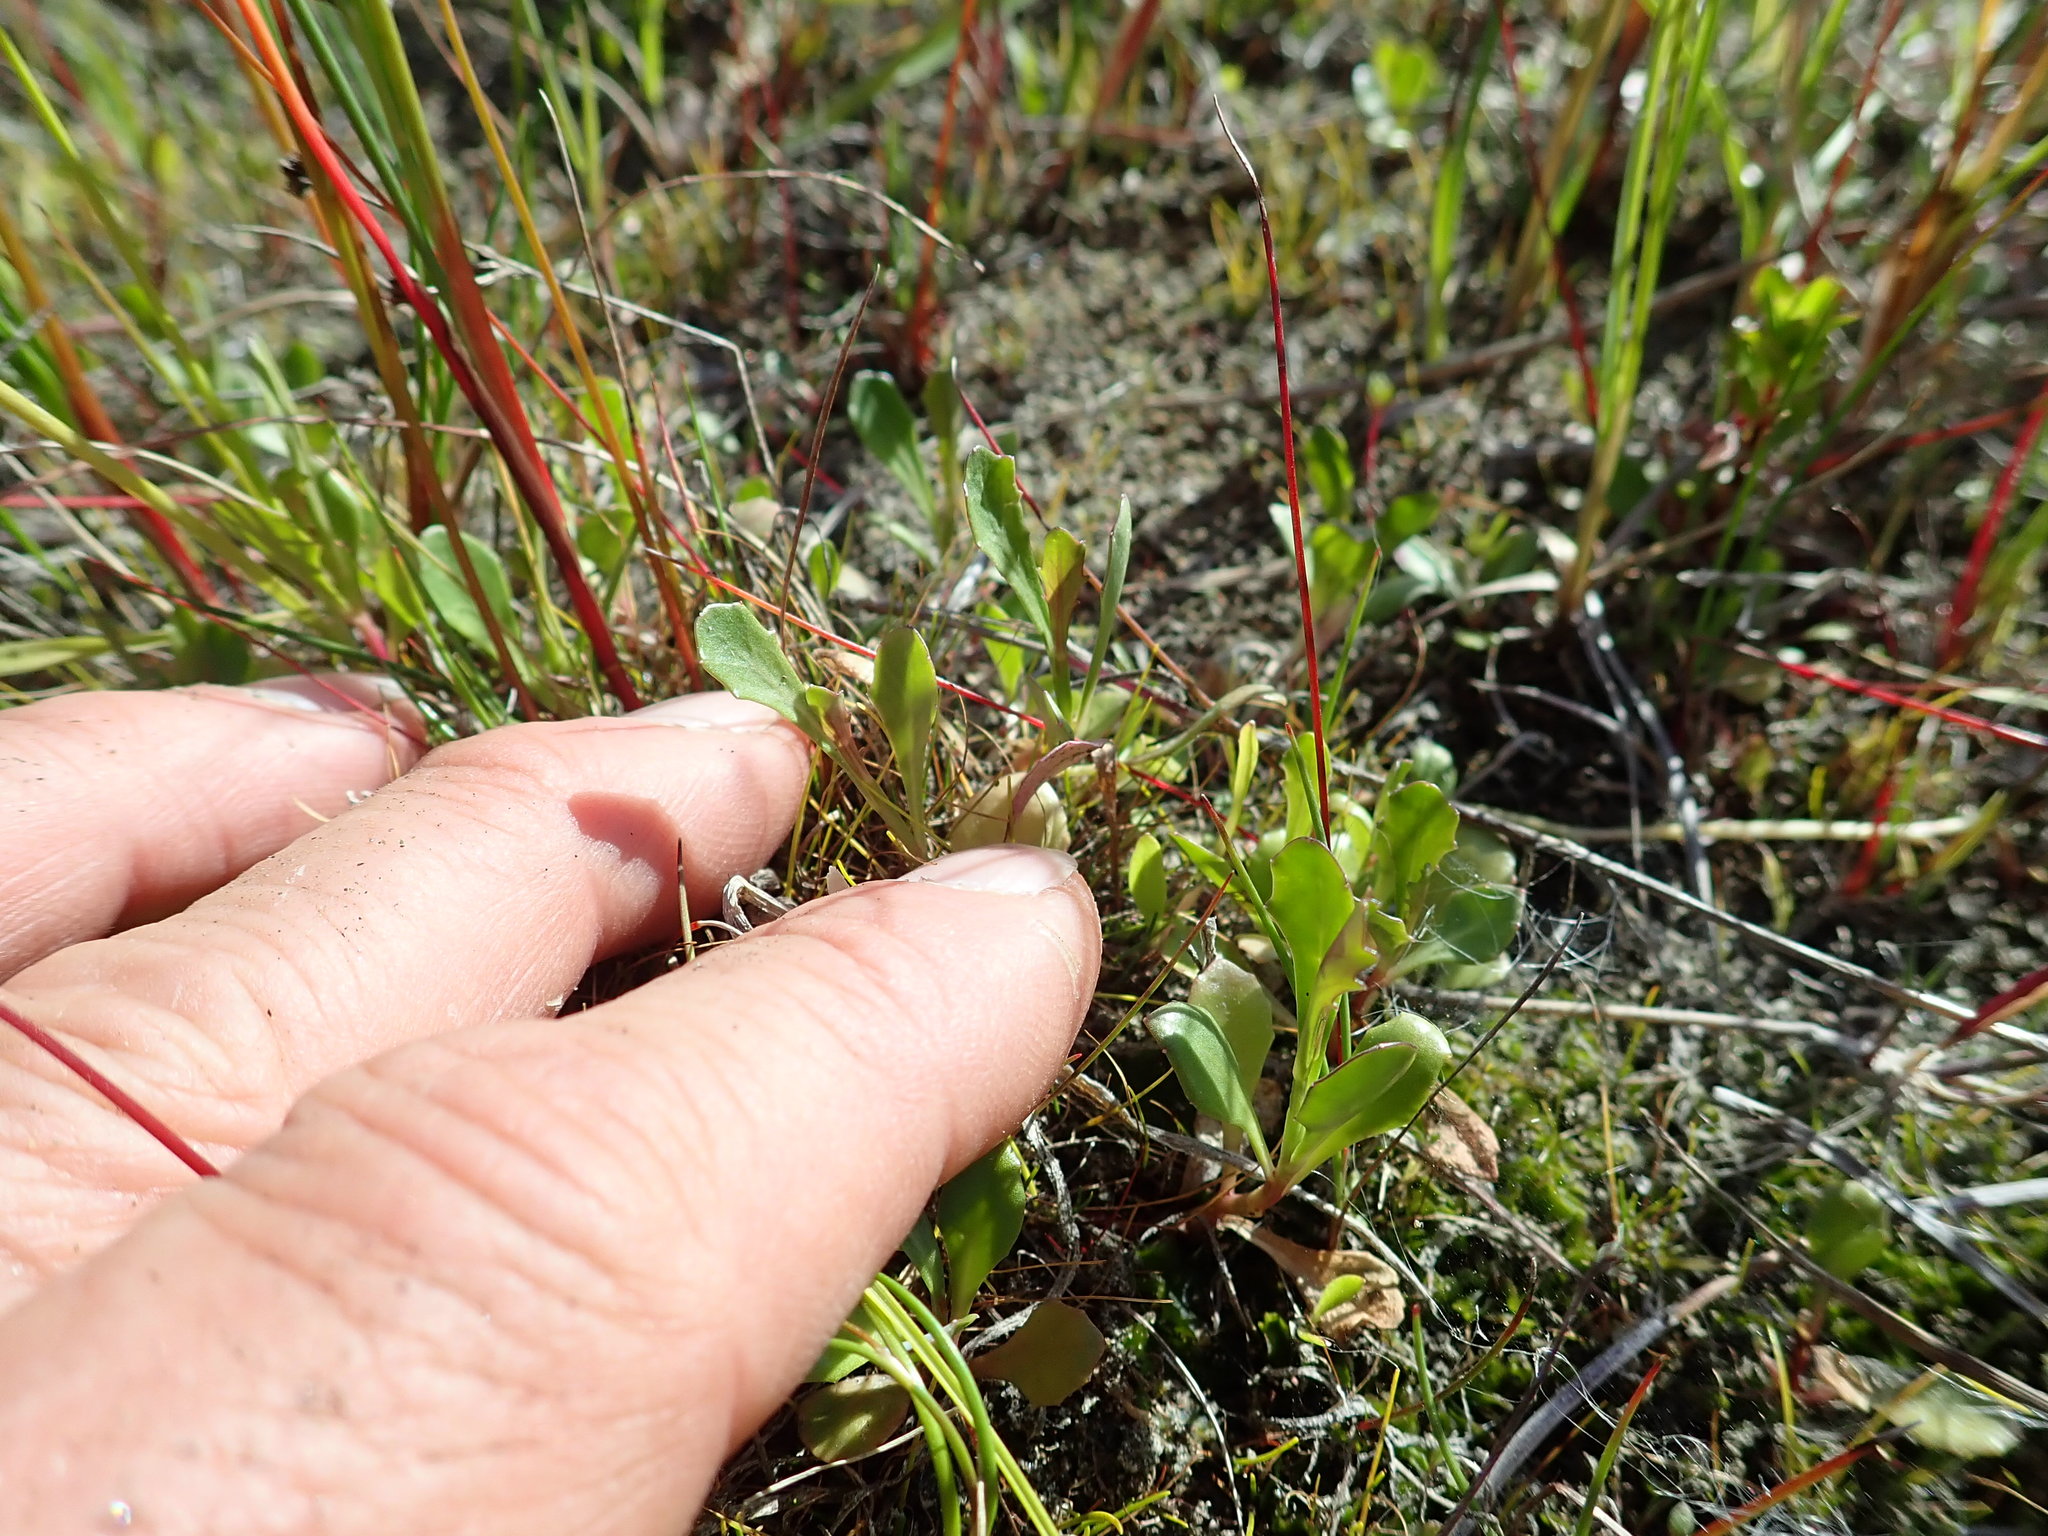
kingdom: Plantae
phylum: Tracheophyta
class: Magnoliopsida
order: Asterales
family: Campanulaceae
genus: Lobelia
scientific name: Lobelia anceps
